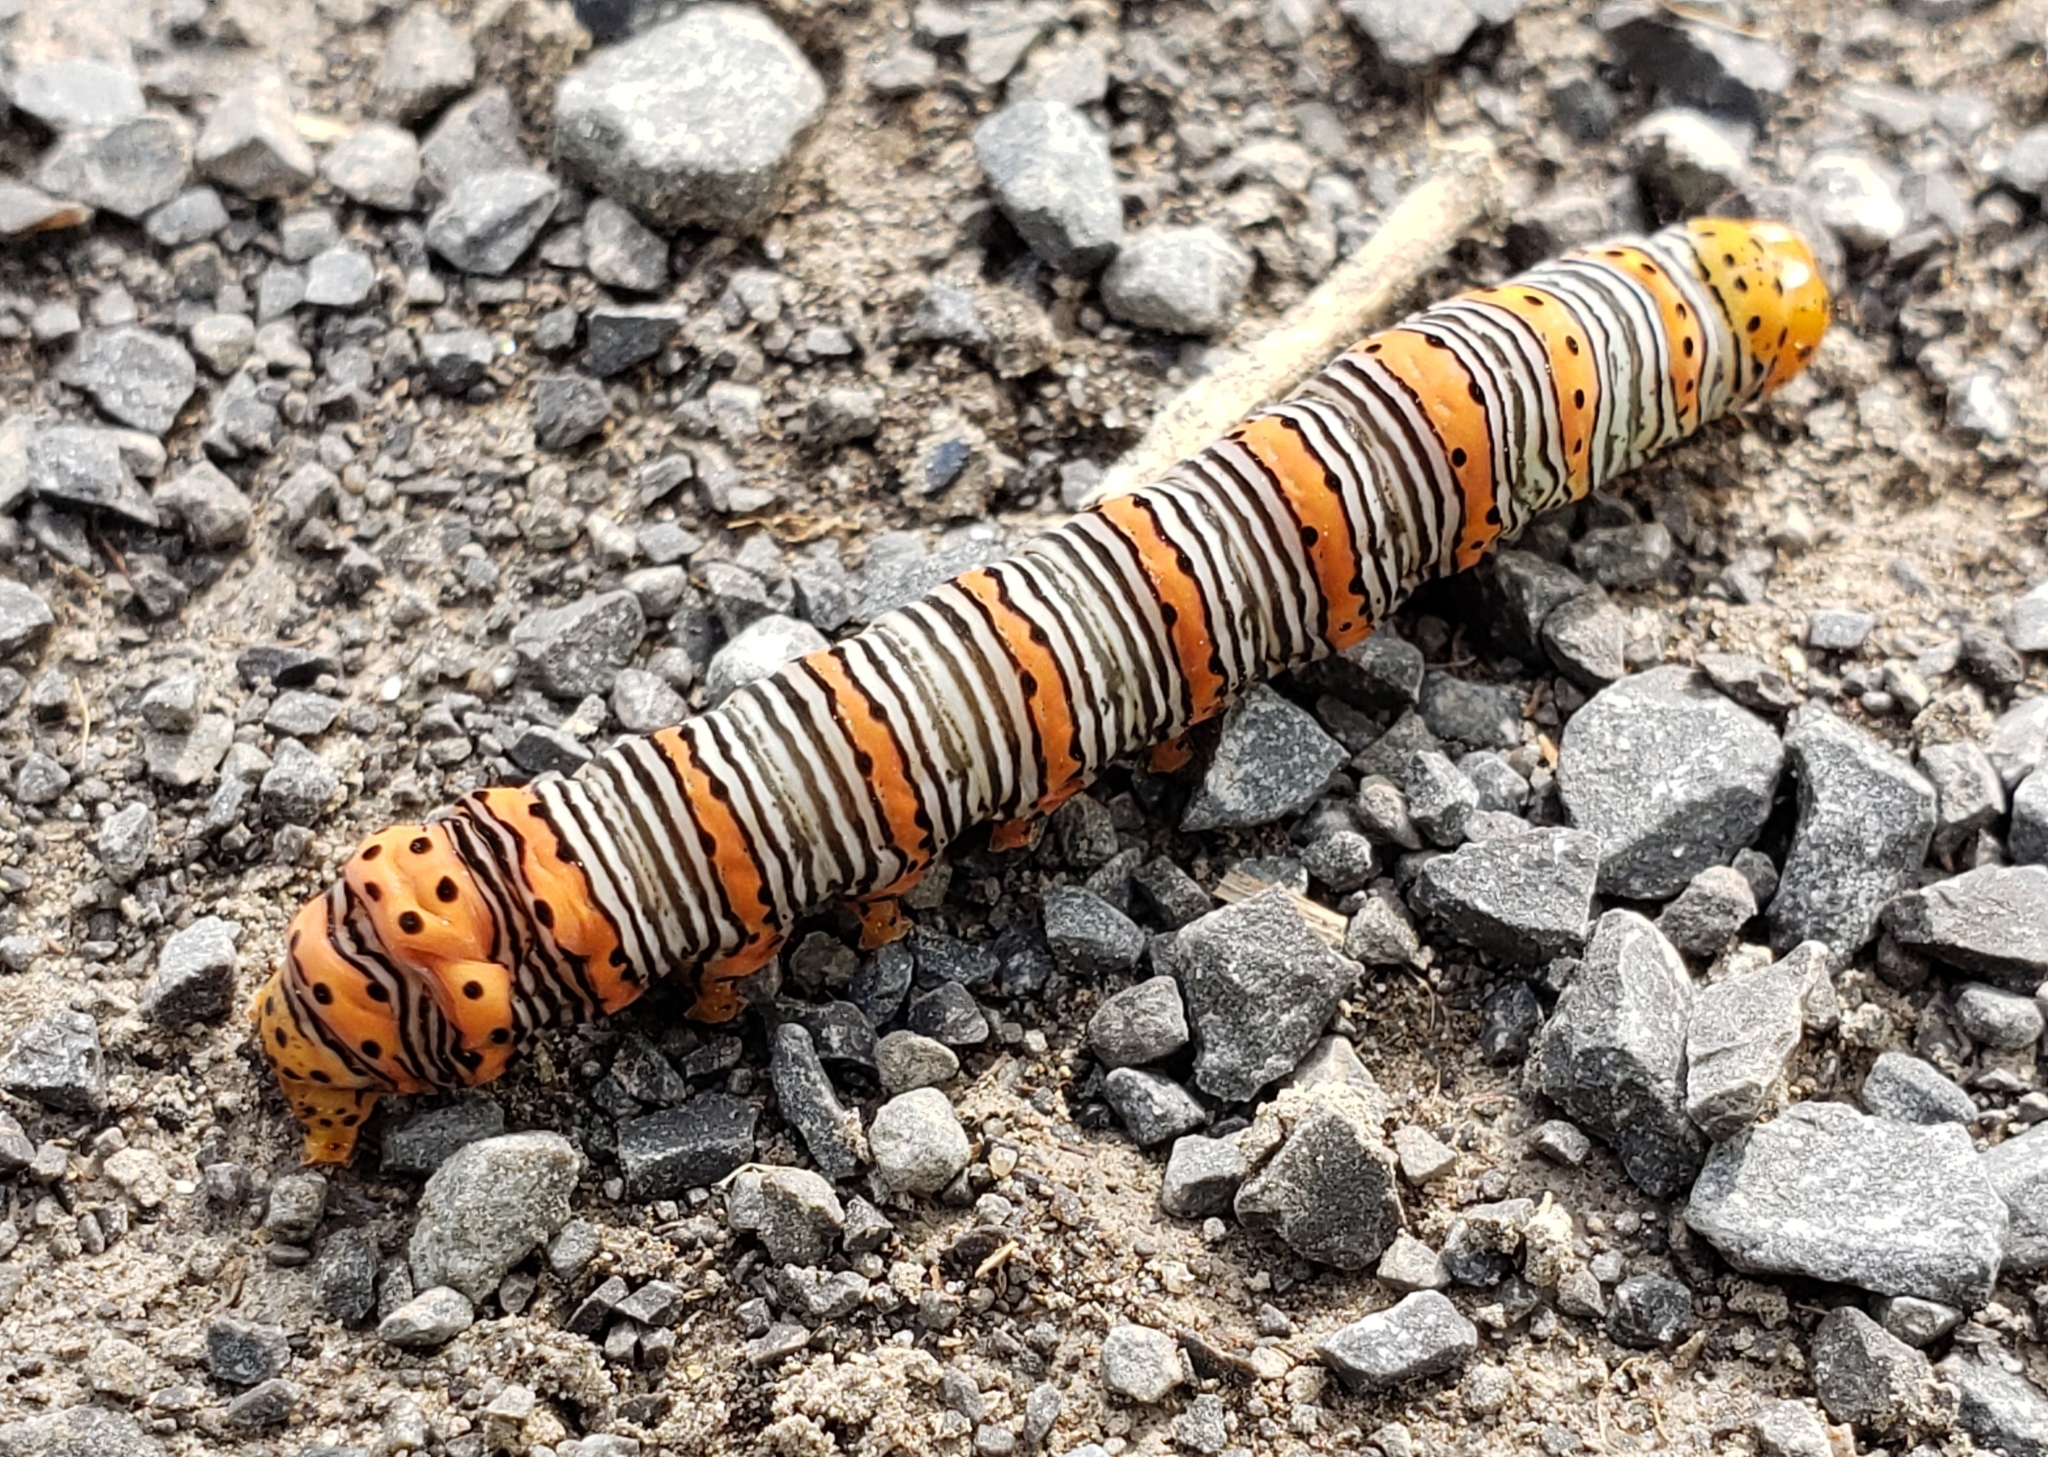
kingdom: Animalia
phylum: Arthropoda
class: Insecta
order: Lepidoptera
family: Noctuidae
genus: Eudryas
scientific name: Eudryas grata
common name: Beautiful wood-nymph
